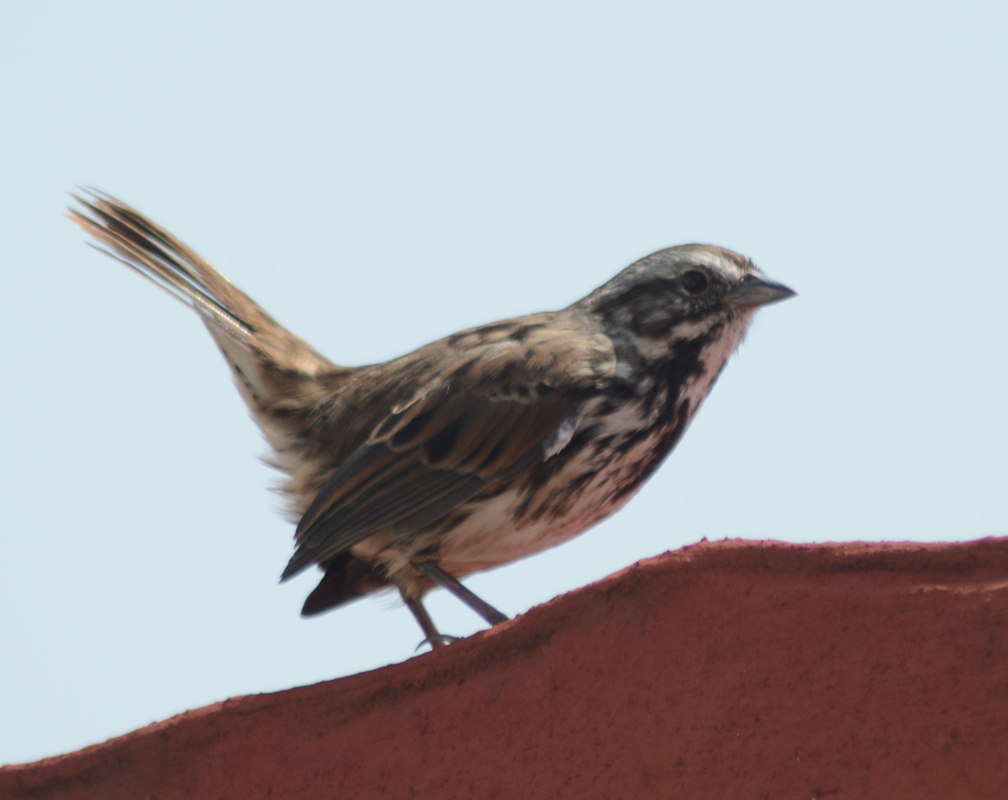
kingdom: Animalia
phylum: Chordata
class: Aves
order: Passeriformes
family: Passerellidae
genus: Melospiza
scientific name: Melospiza melodia
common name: Song sparrow
